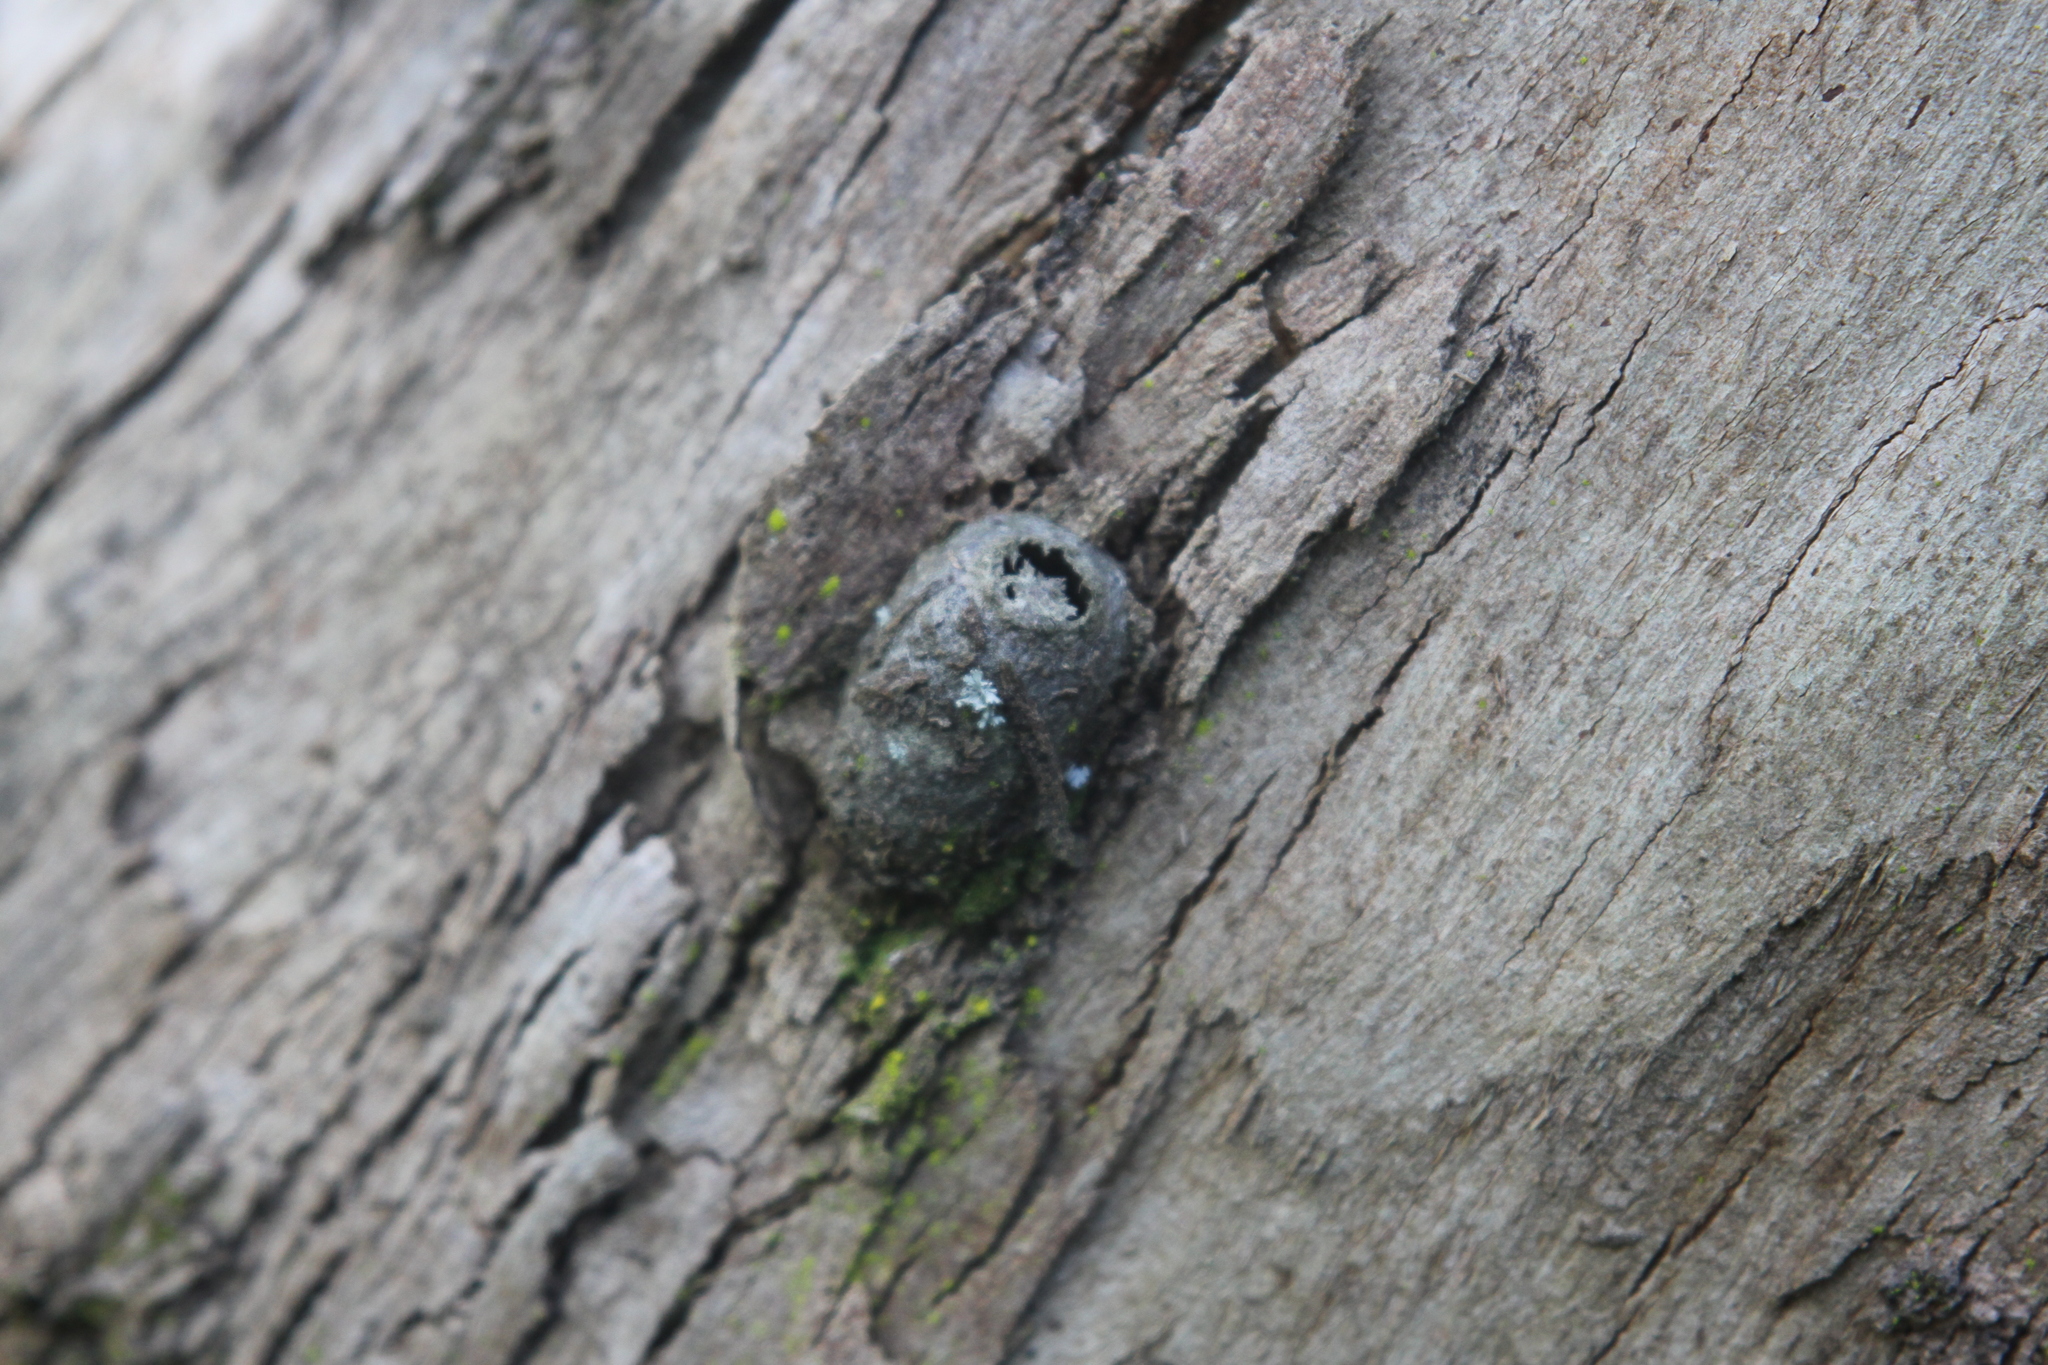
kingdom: Animalia
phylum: Arthropoda
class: Insecta
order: Lepidoptera
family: Saturniidae
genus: Opodiphthera
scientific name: Opodiphthera
